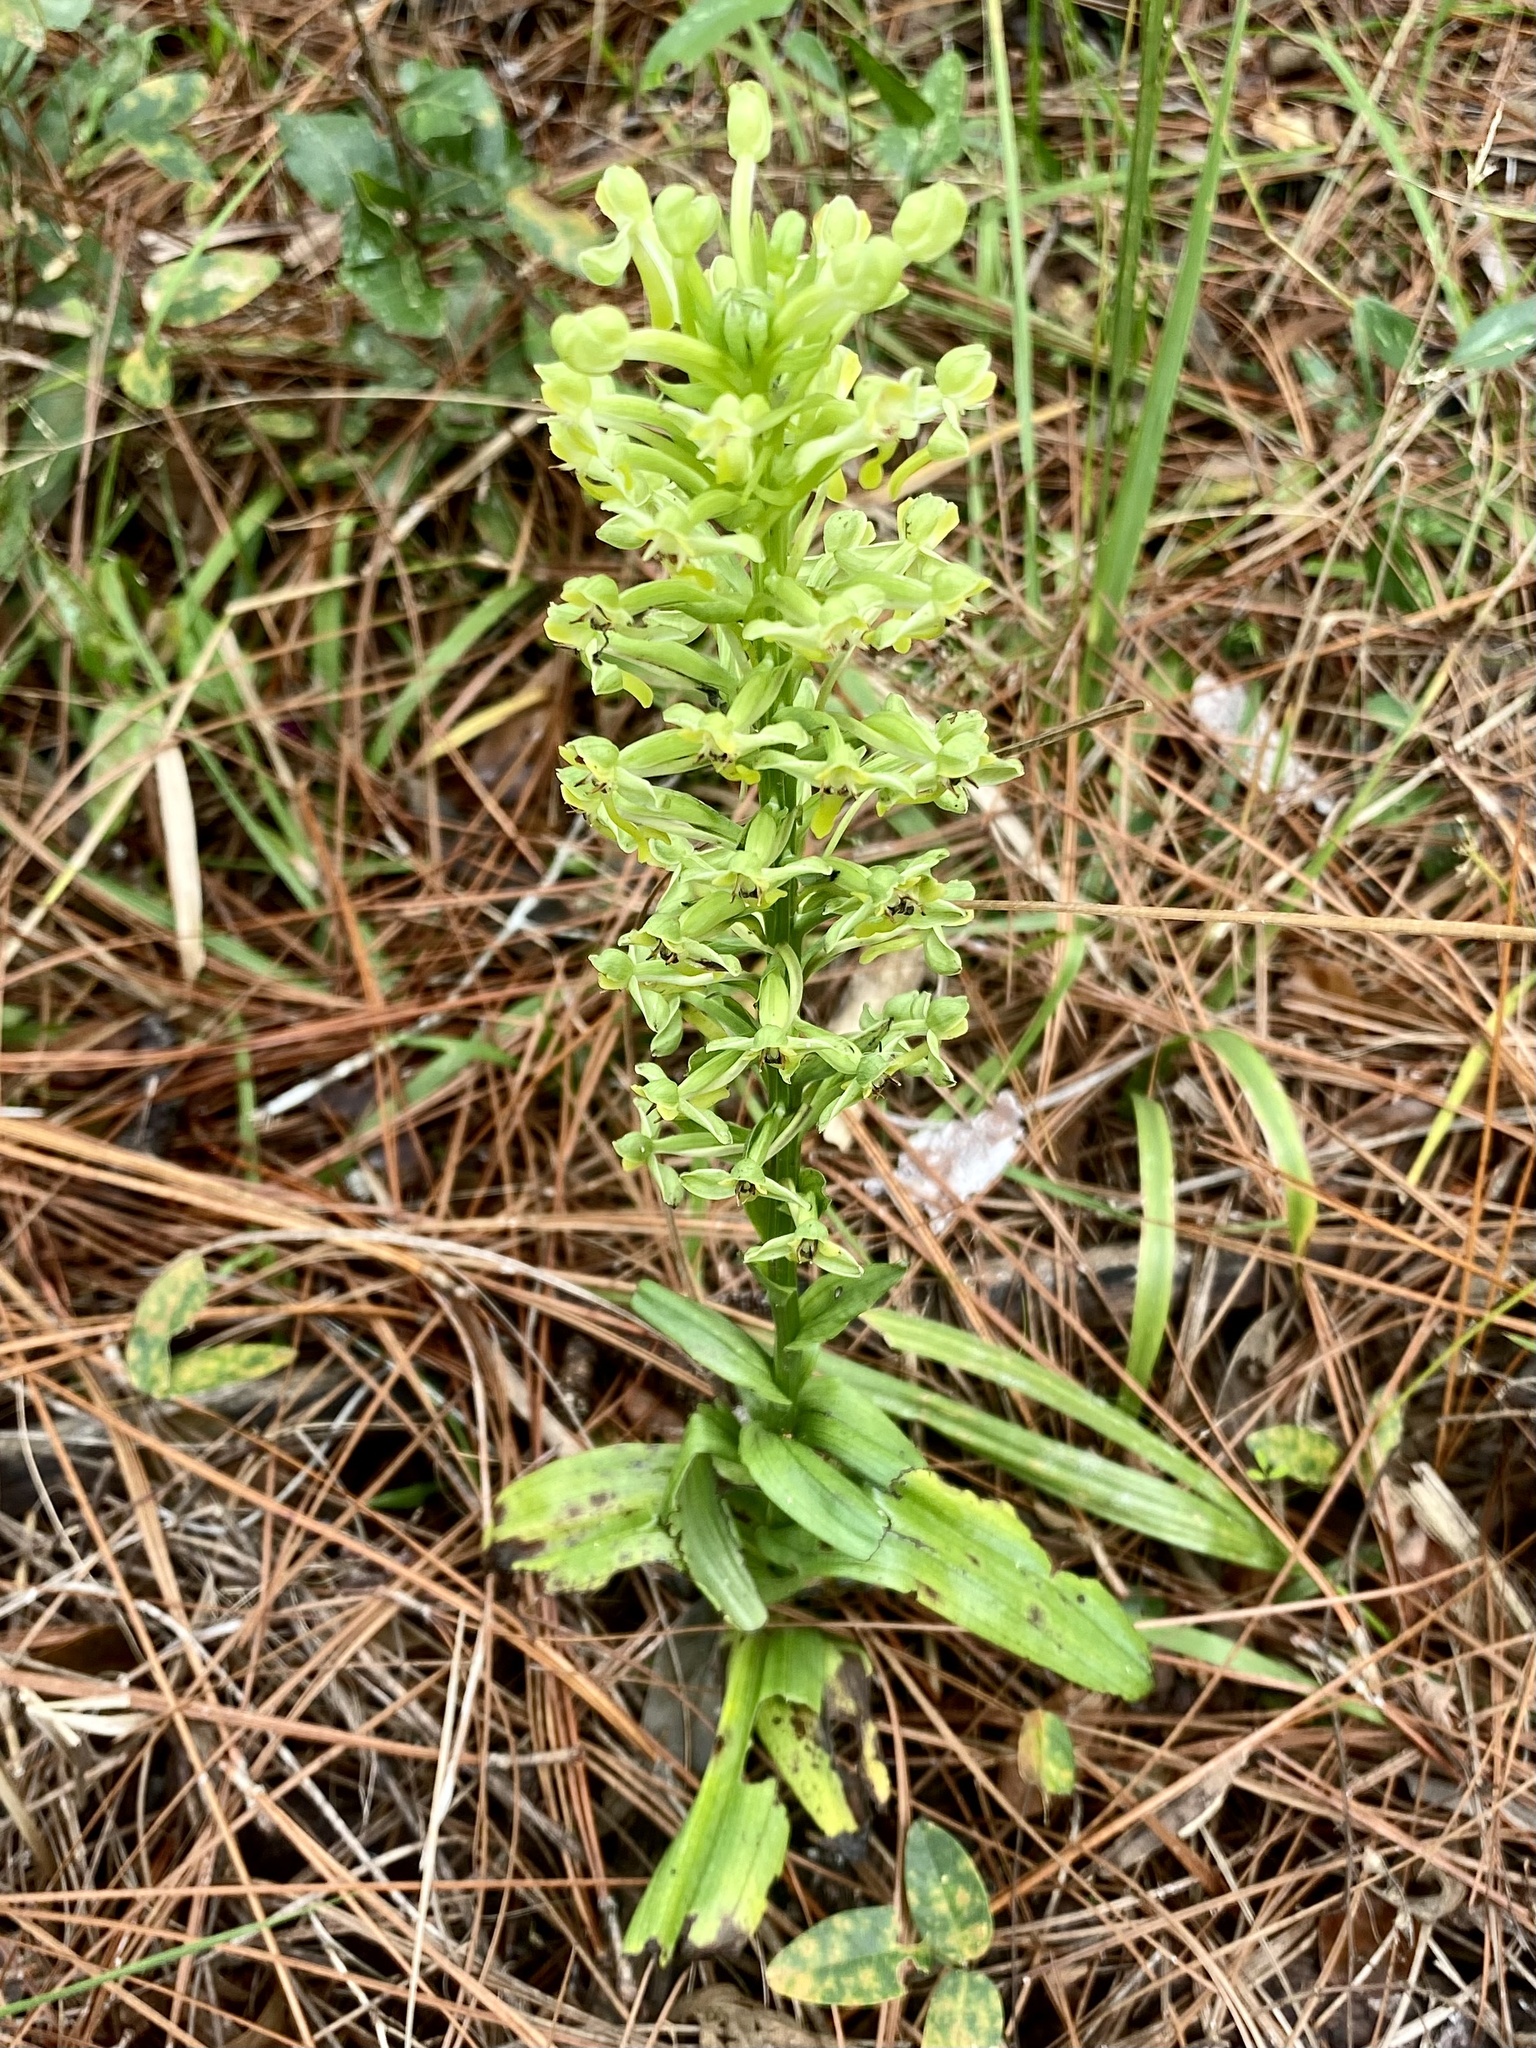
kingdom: Plantae
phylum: Tracheophyta
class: Liliopsida
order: Asparagales
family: Orchidaceae
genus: Habenaria
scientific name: Habenaria floribunda
